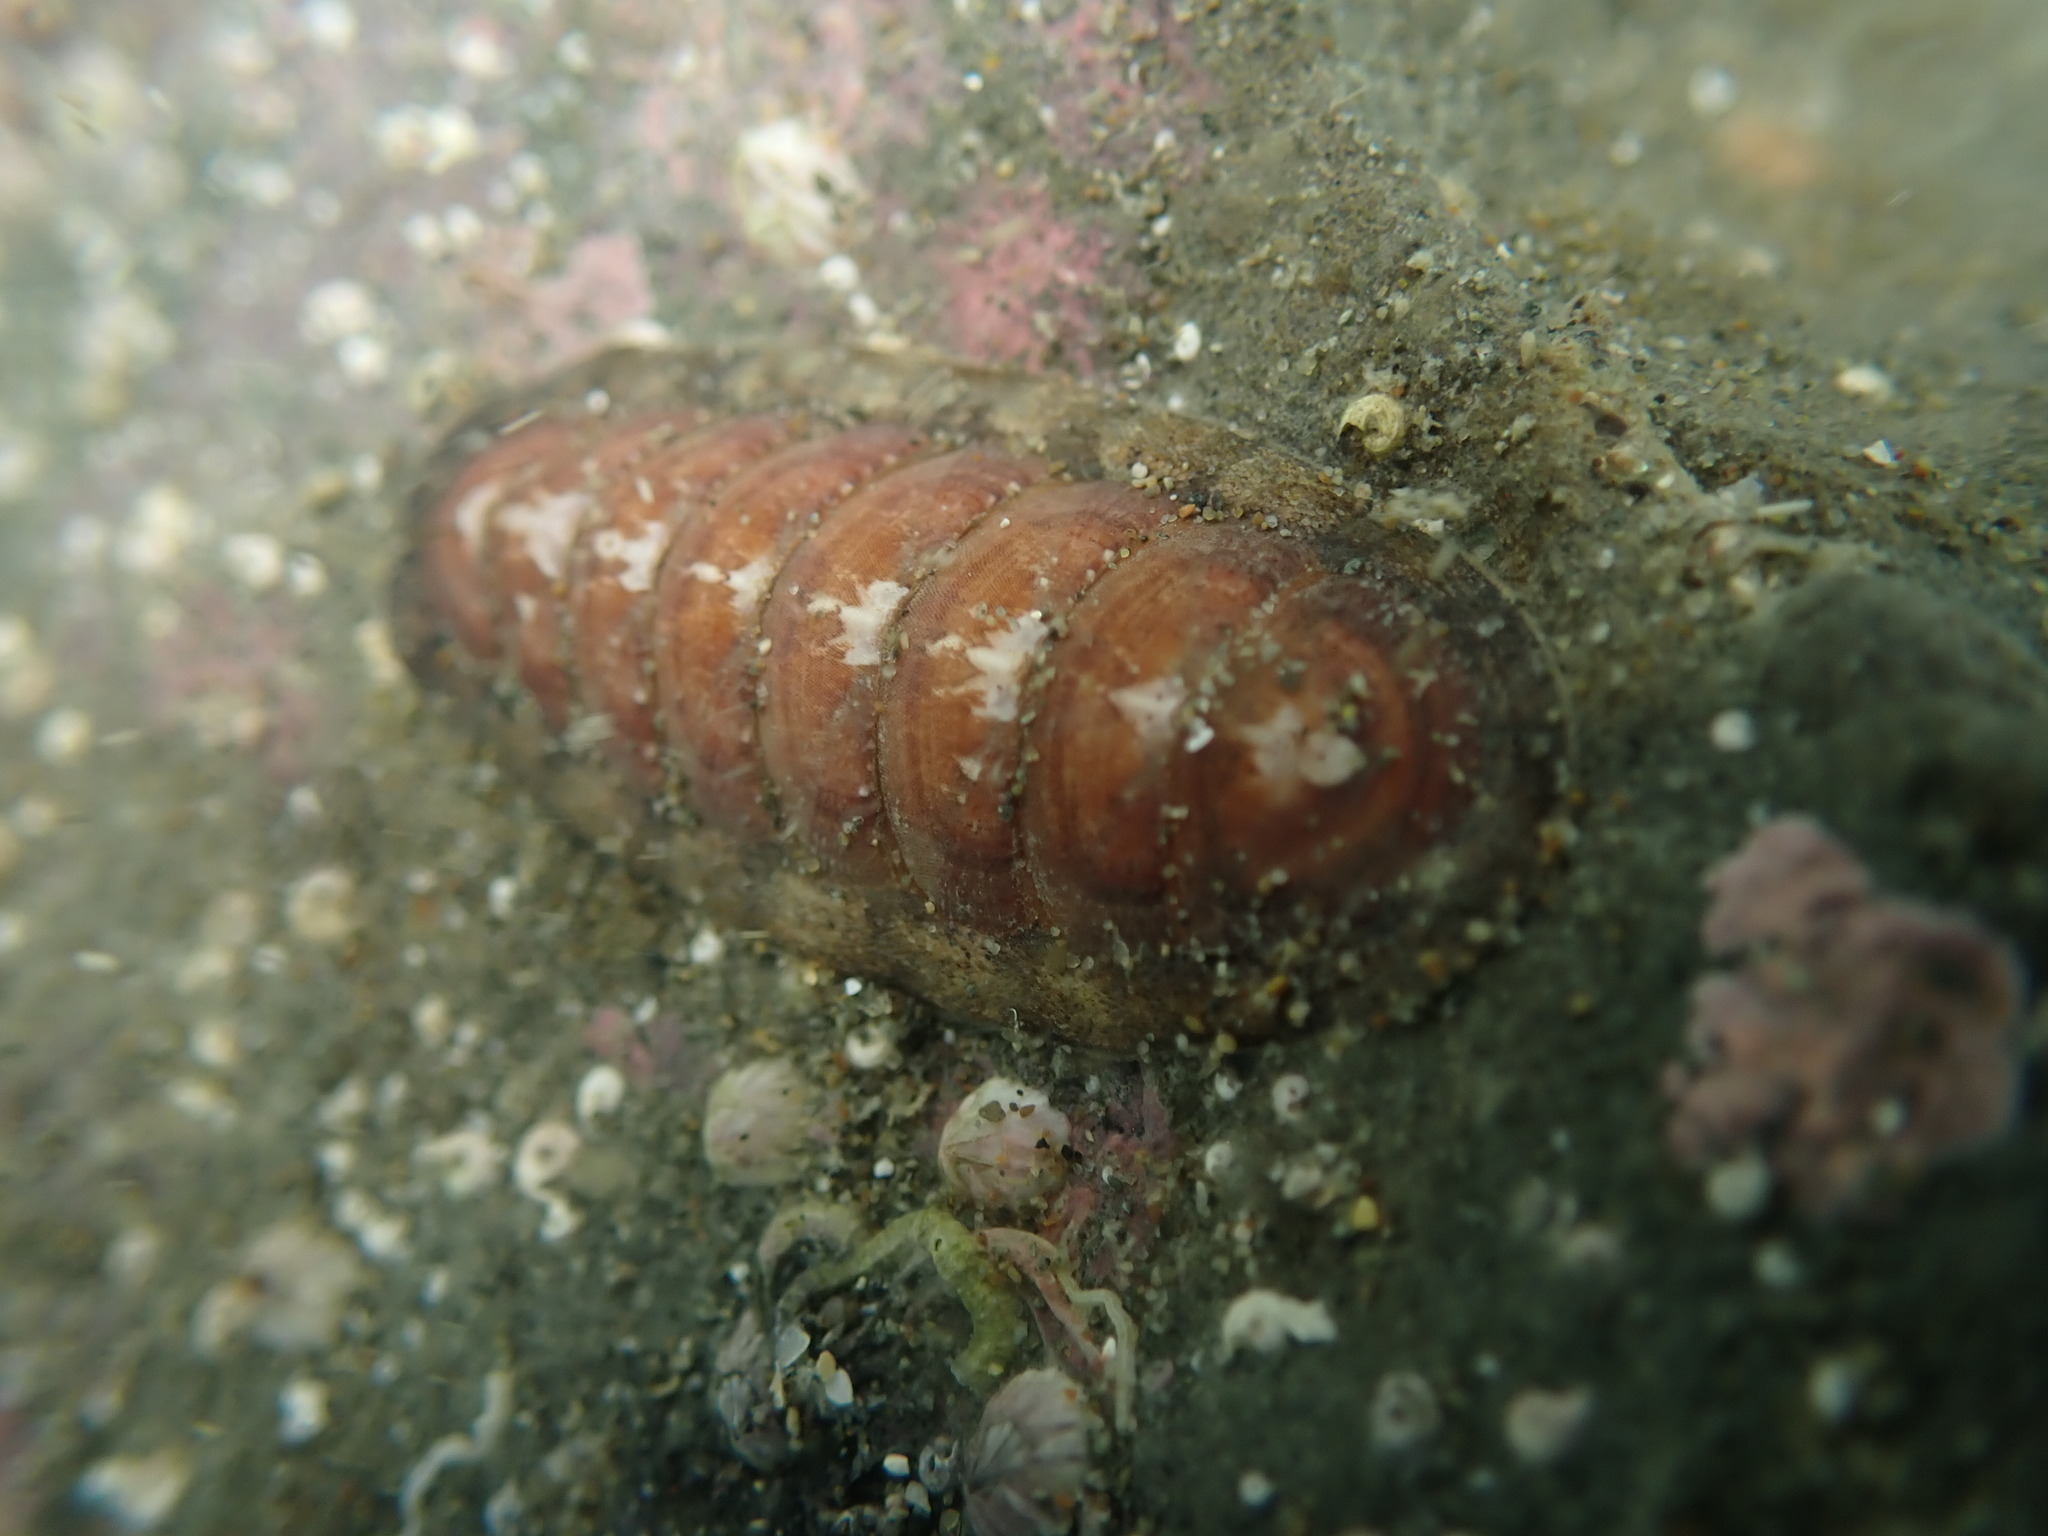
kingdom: Animalia
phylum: Mollusca
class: Polyplacophora
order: Chitonida
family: Ischnochitonidae
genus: Ischnochiton
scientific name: Ischnochiton maorianus
